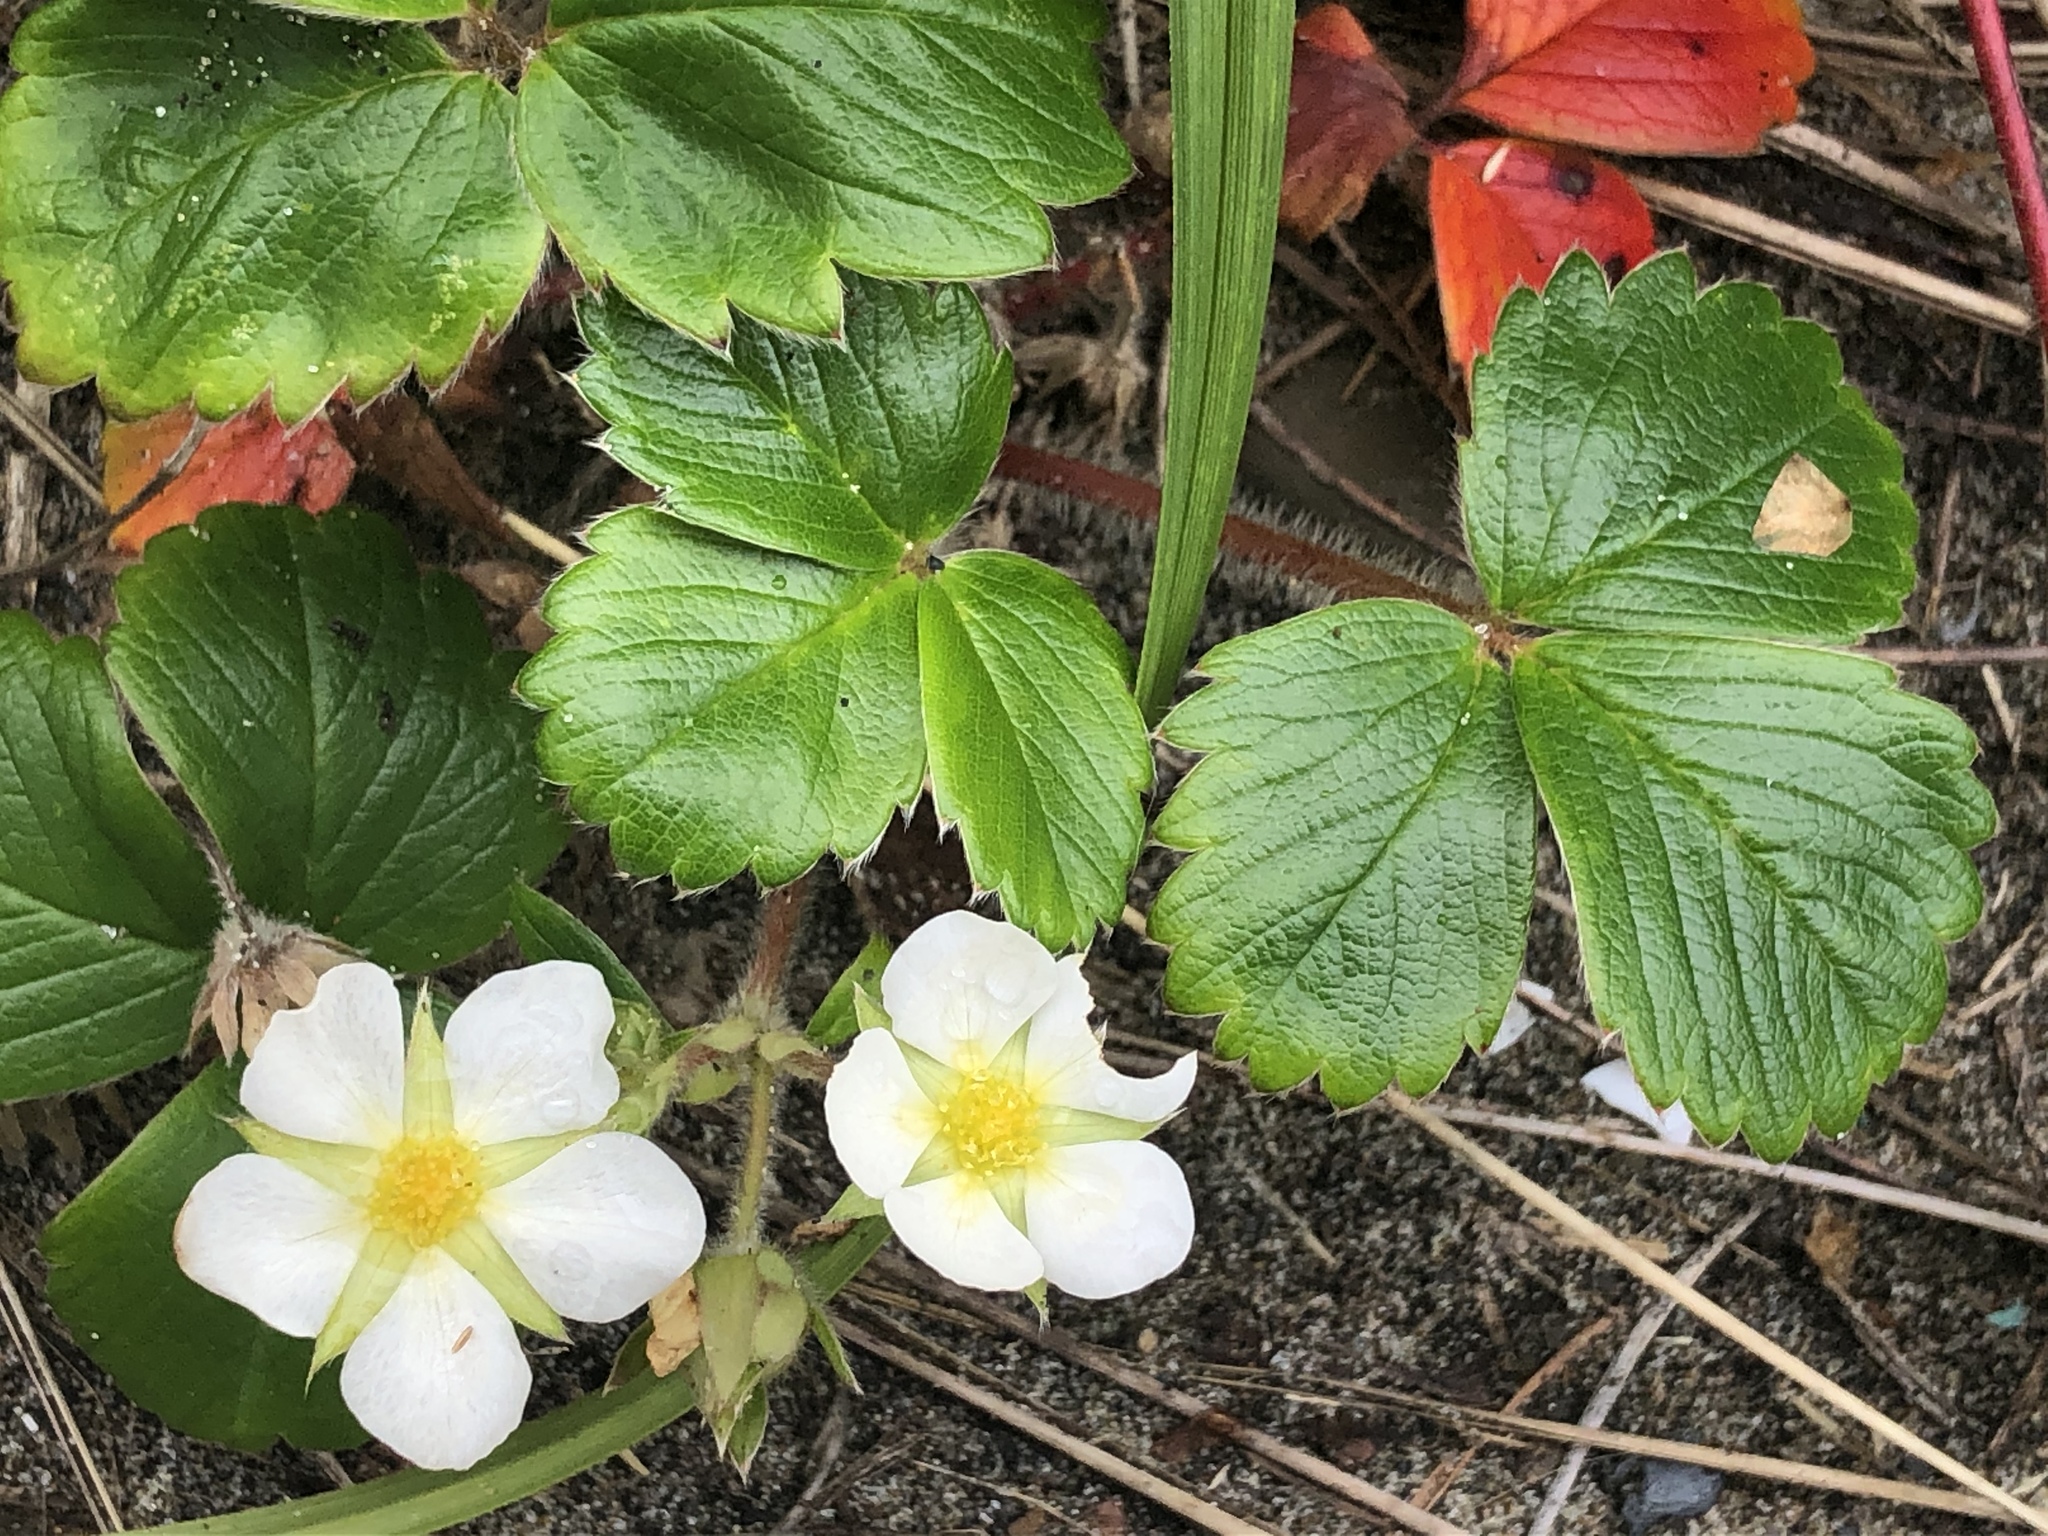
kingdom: Plantae
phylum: Tracheophyta
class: Magnoliopsida
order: Rosales
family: Rosaceae
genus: Fragaria
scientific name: Fragaria chiloensis
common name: Beach strawberry
